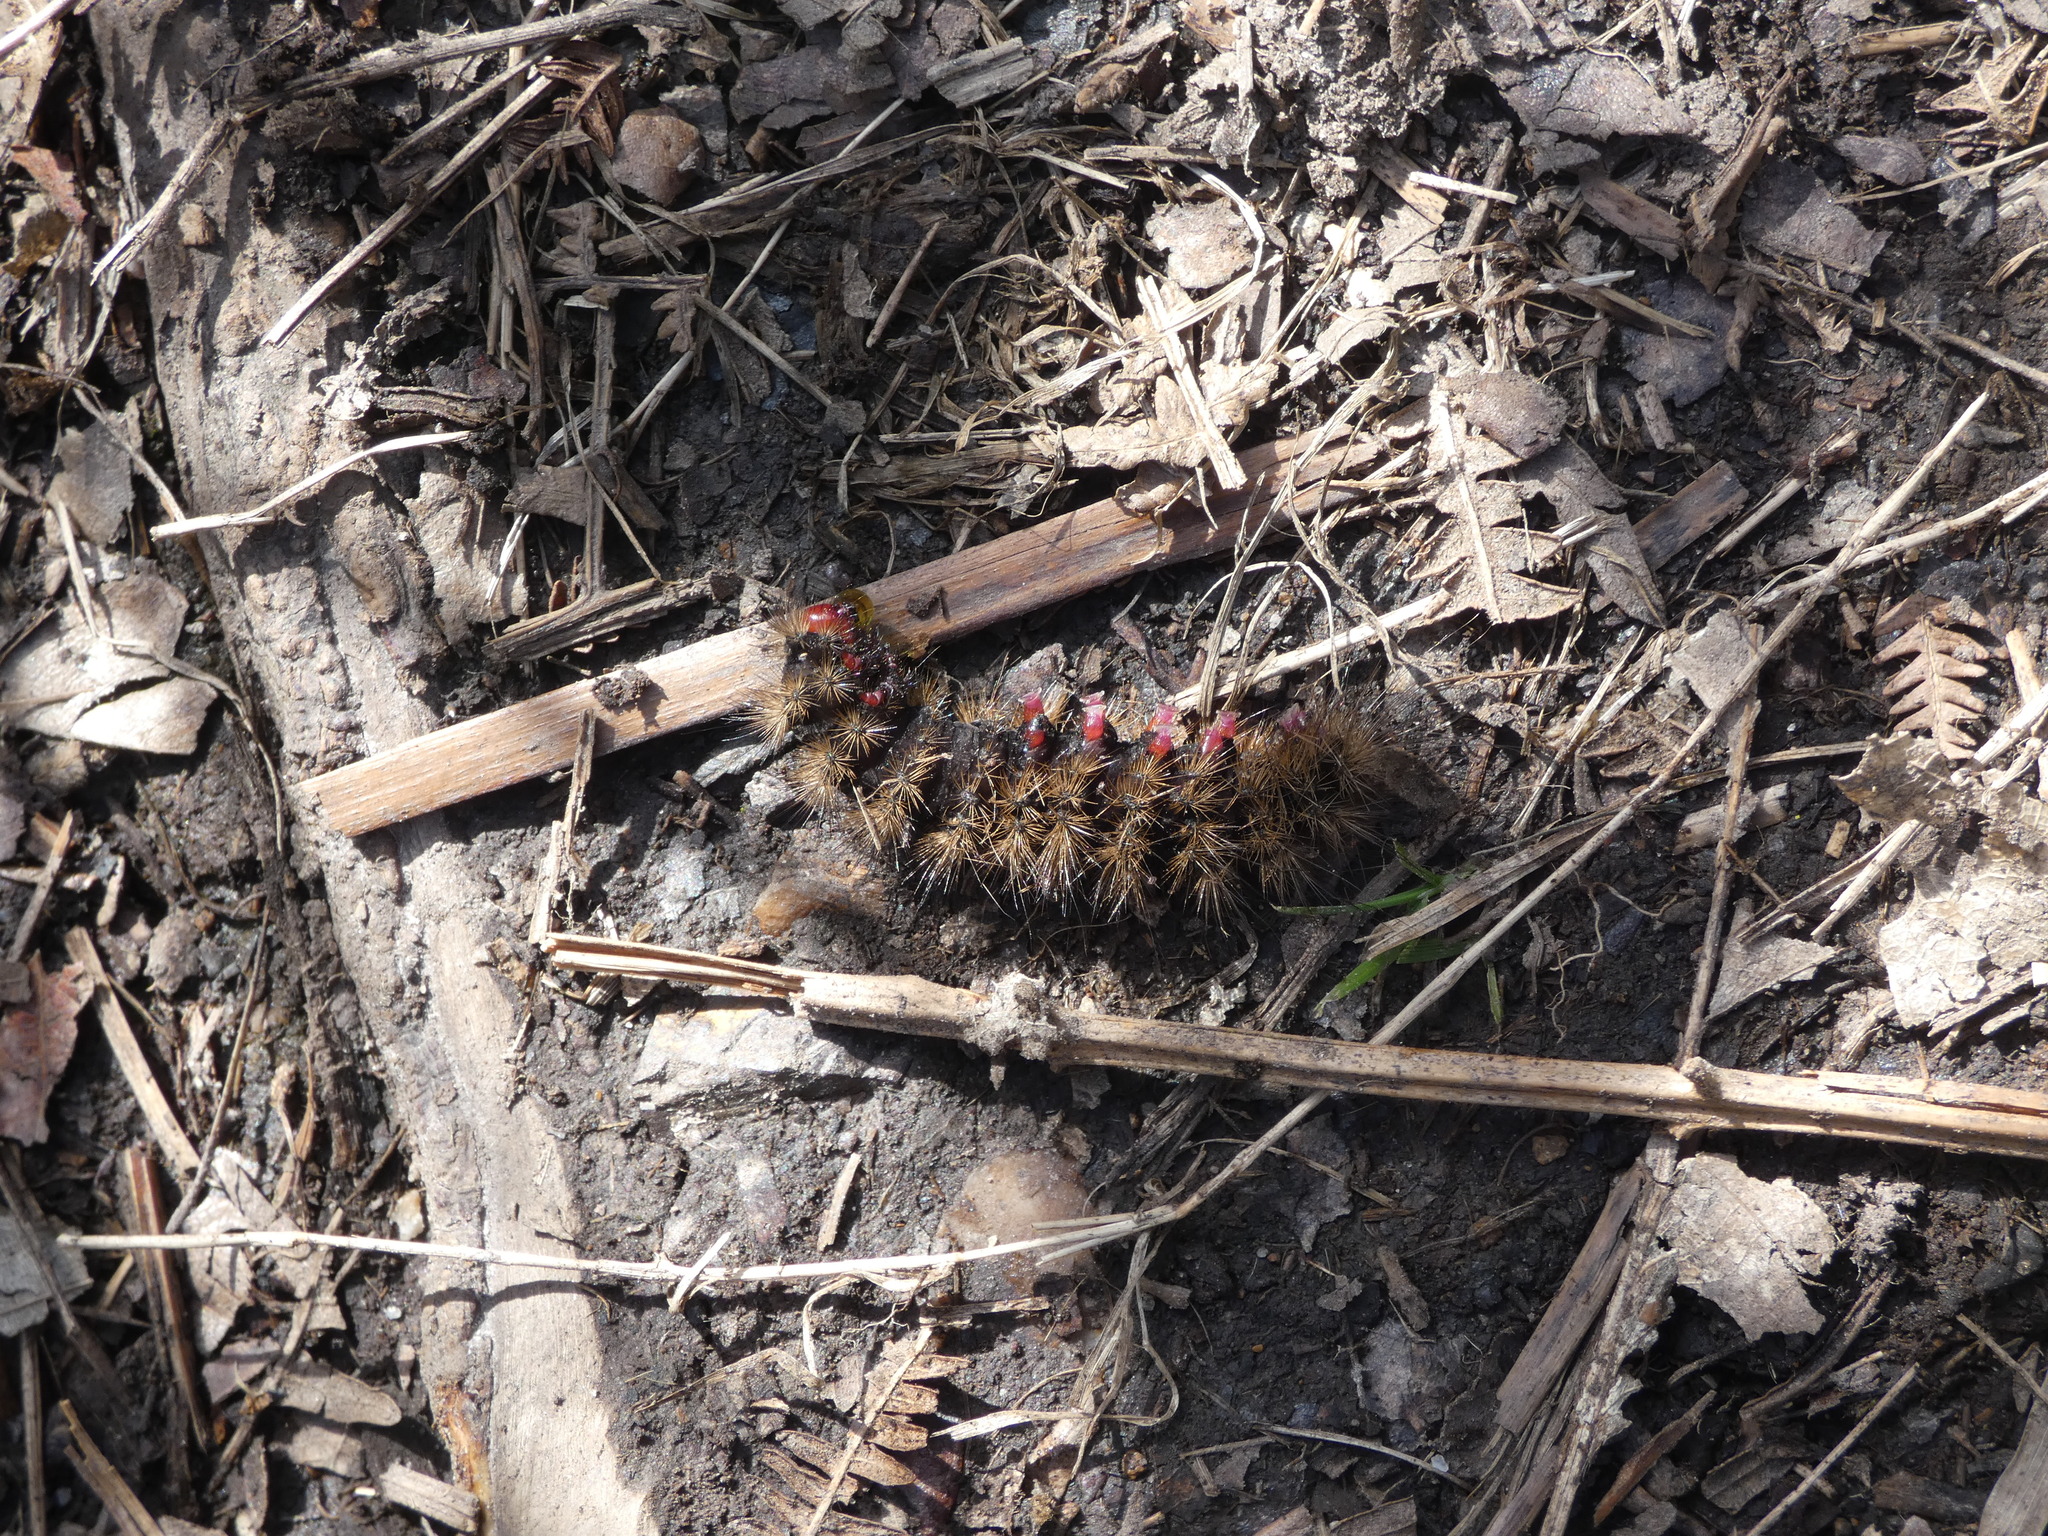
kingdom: Animalia
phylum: Arthropoda
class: Insecta
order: Lepidoptera
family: Erebidae
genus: Epicallia
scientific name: Epicallia villica
